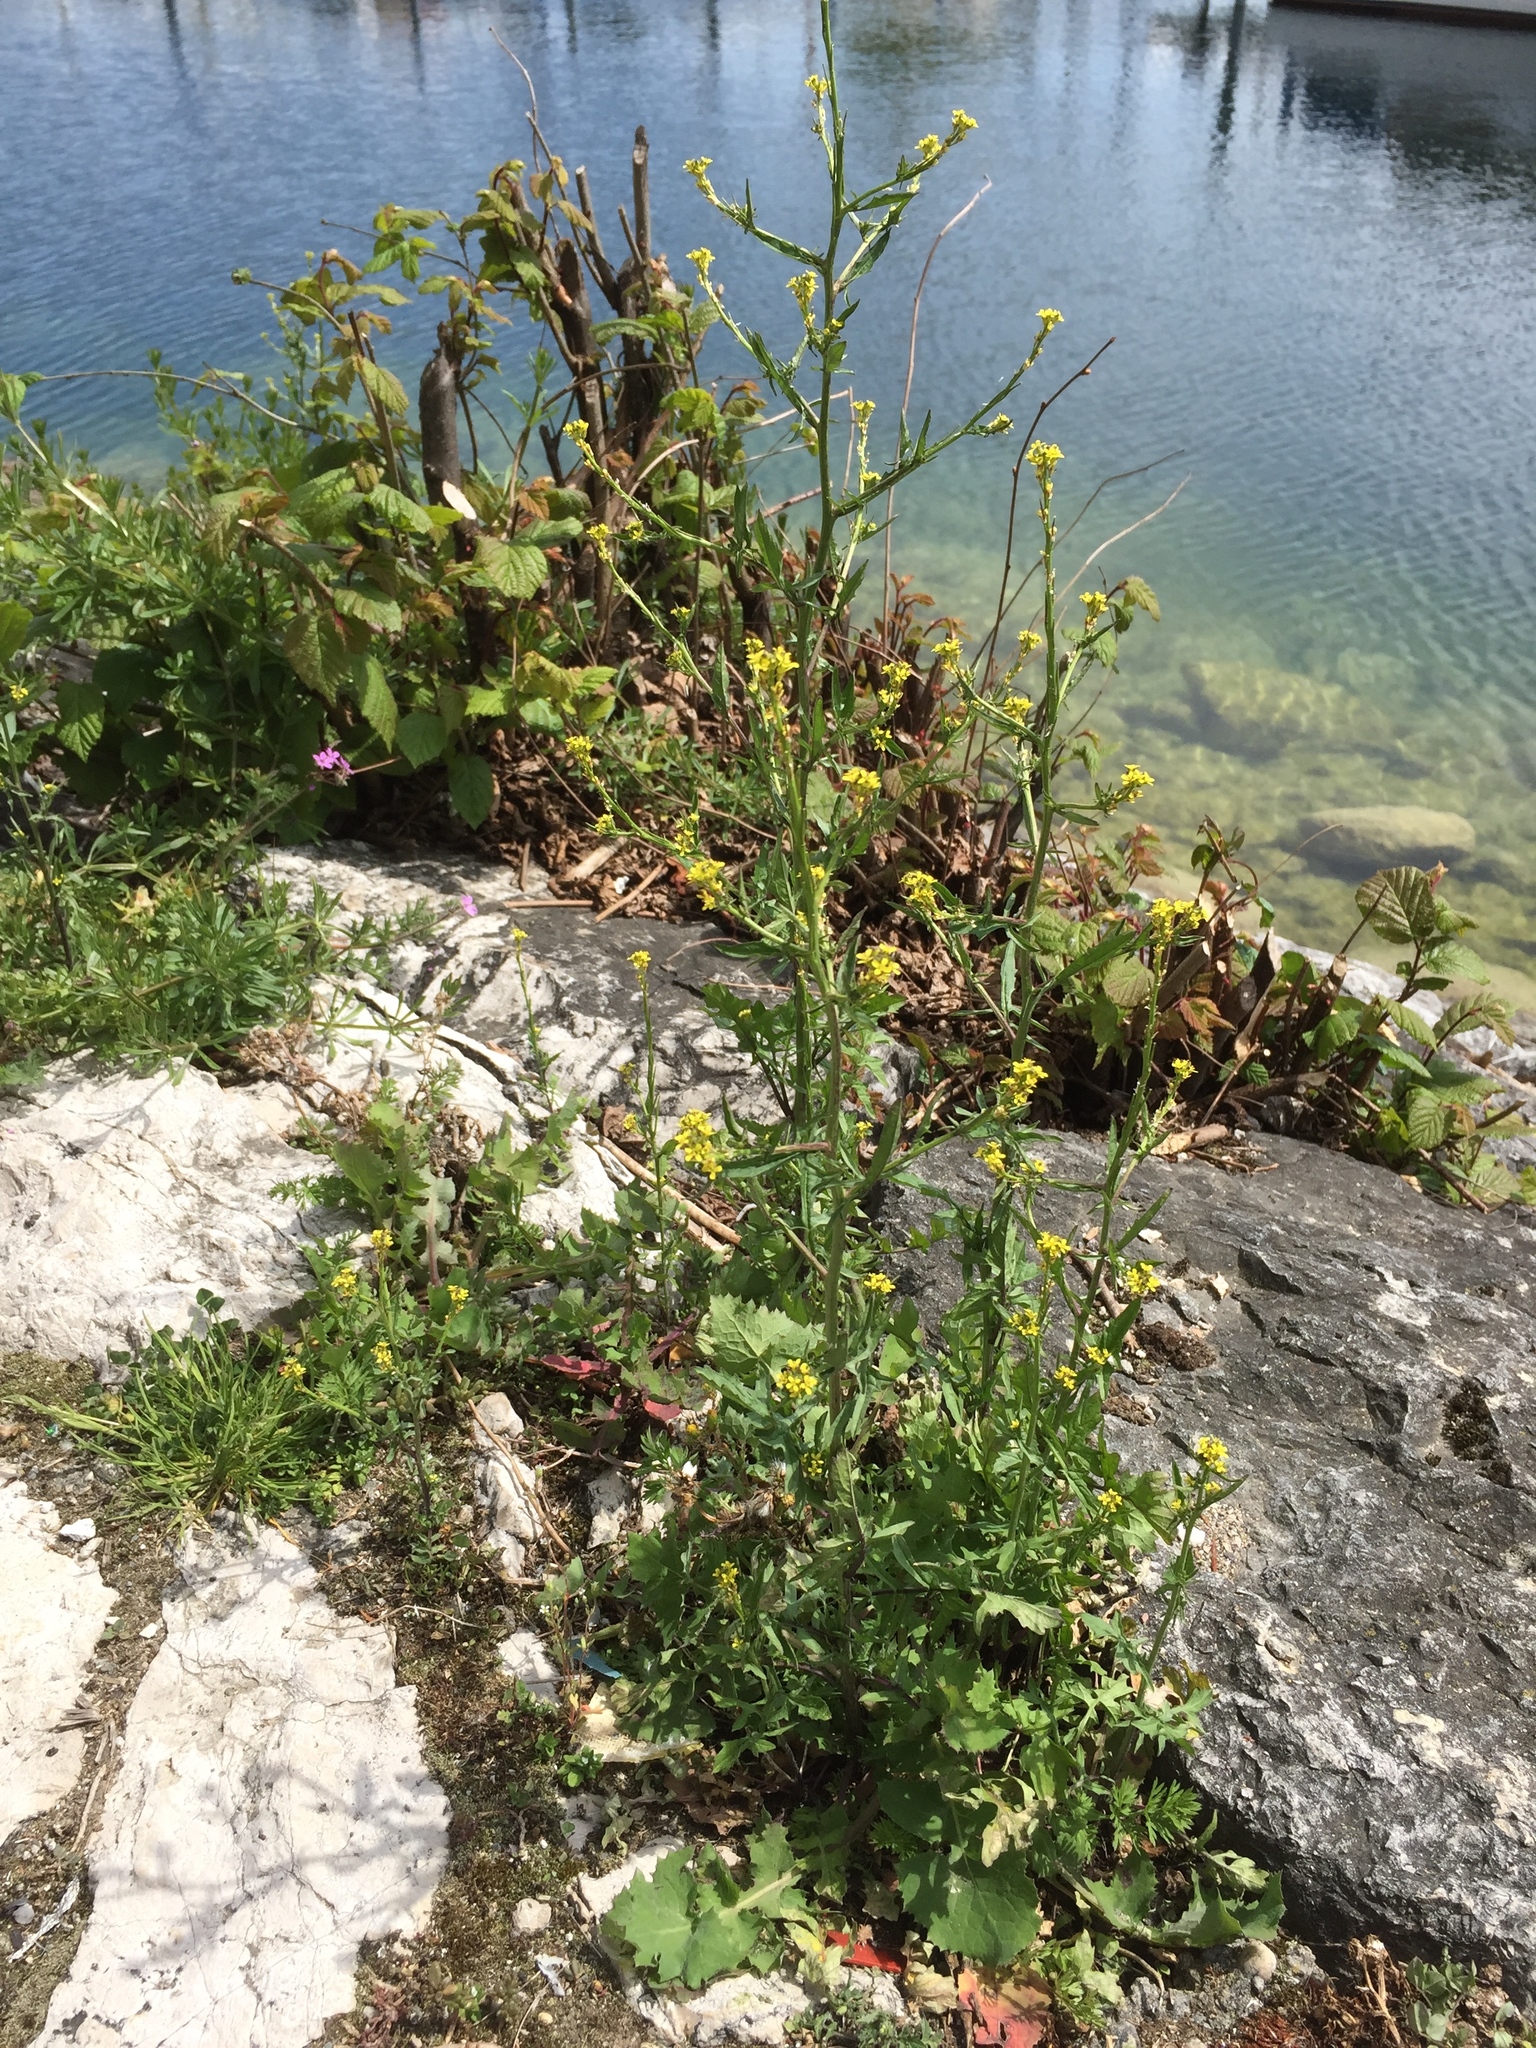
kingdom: Plantae
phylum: Tracheophyta
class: Magnoliopsida
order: Brassicales
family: Brassicaceae
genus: Sisymbrium
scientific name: Sisymbrium officinale
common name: Hedge mustard
